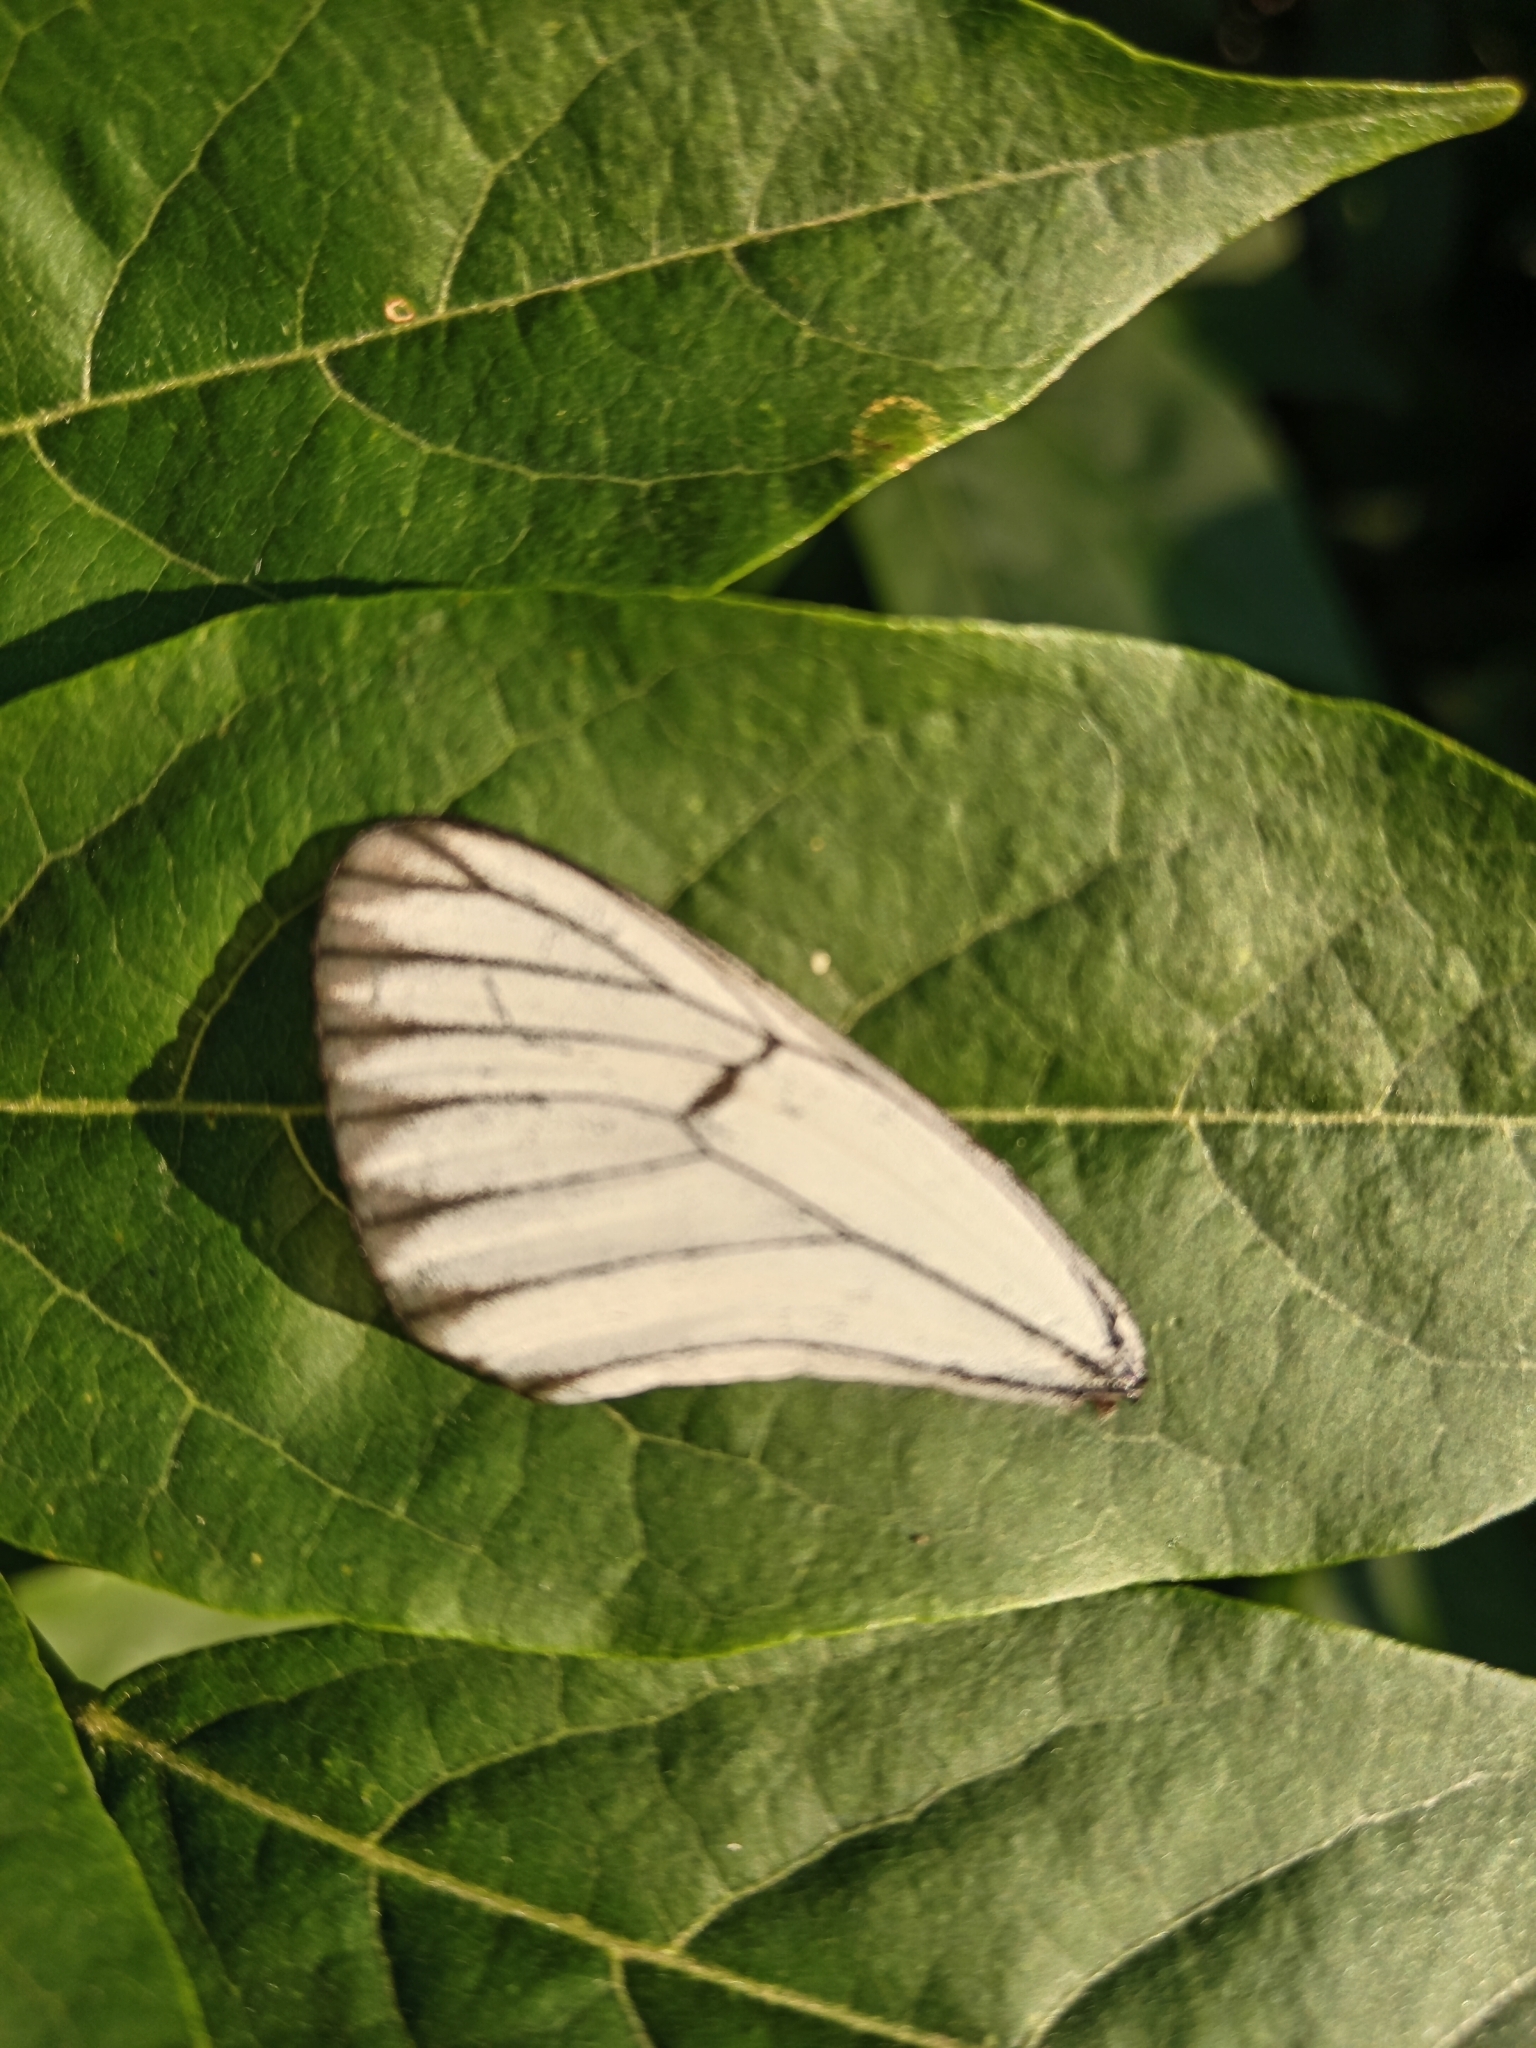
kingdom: Animalia
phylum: Arthropoda
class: Insecta
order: Lepidoptera
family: Pieridae
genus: Aporia
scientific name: Aporia crataegi
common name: Black-veined white
